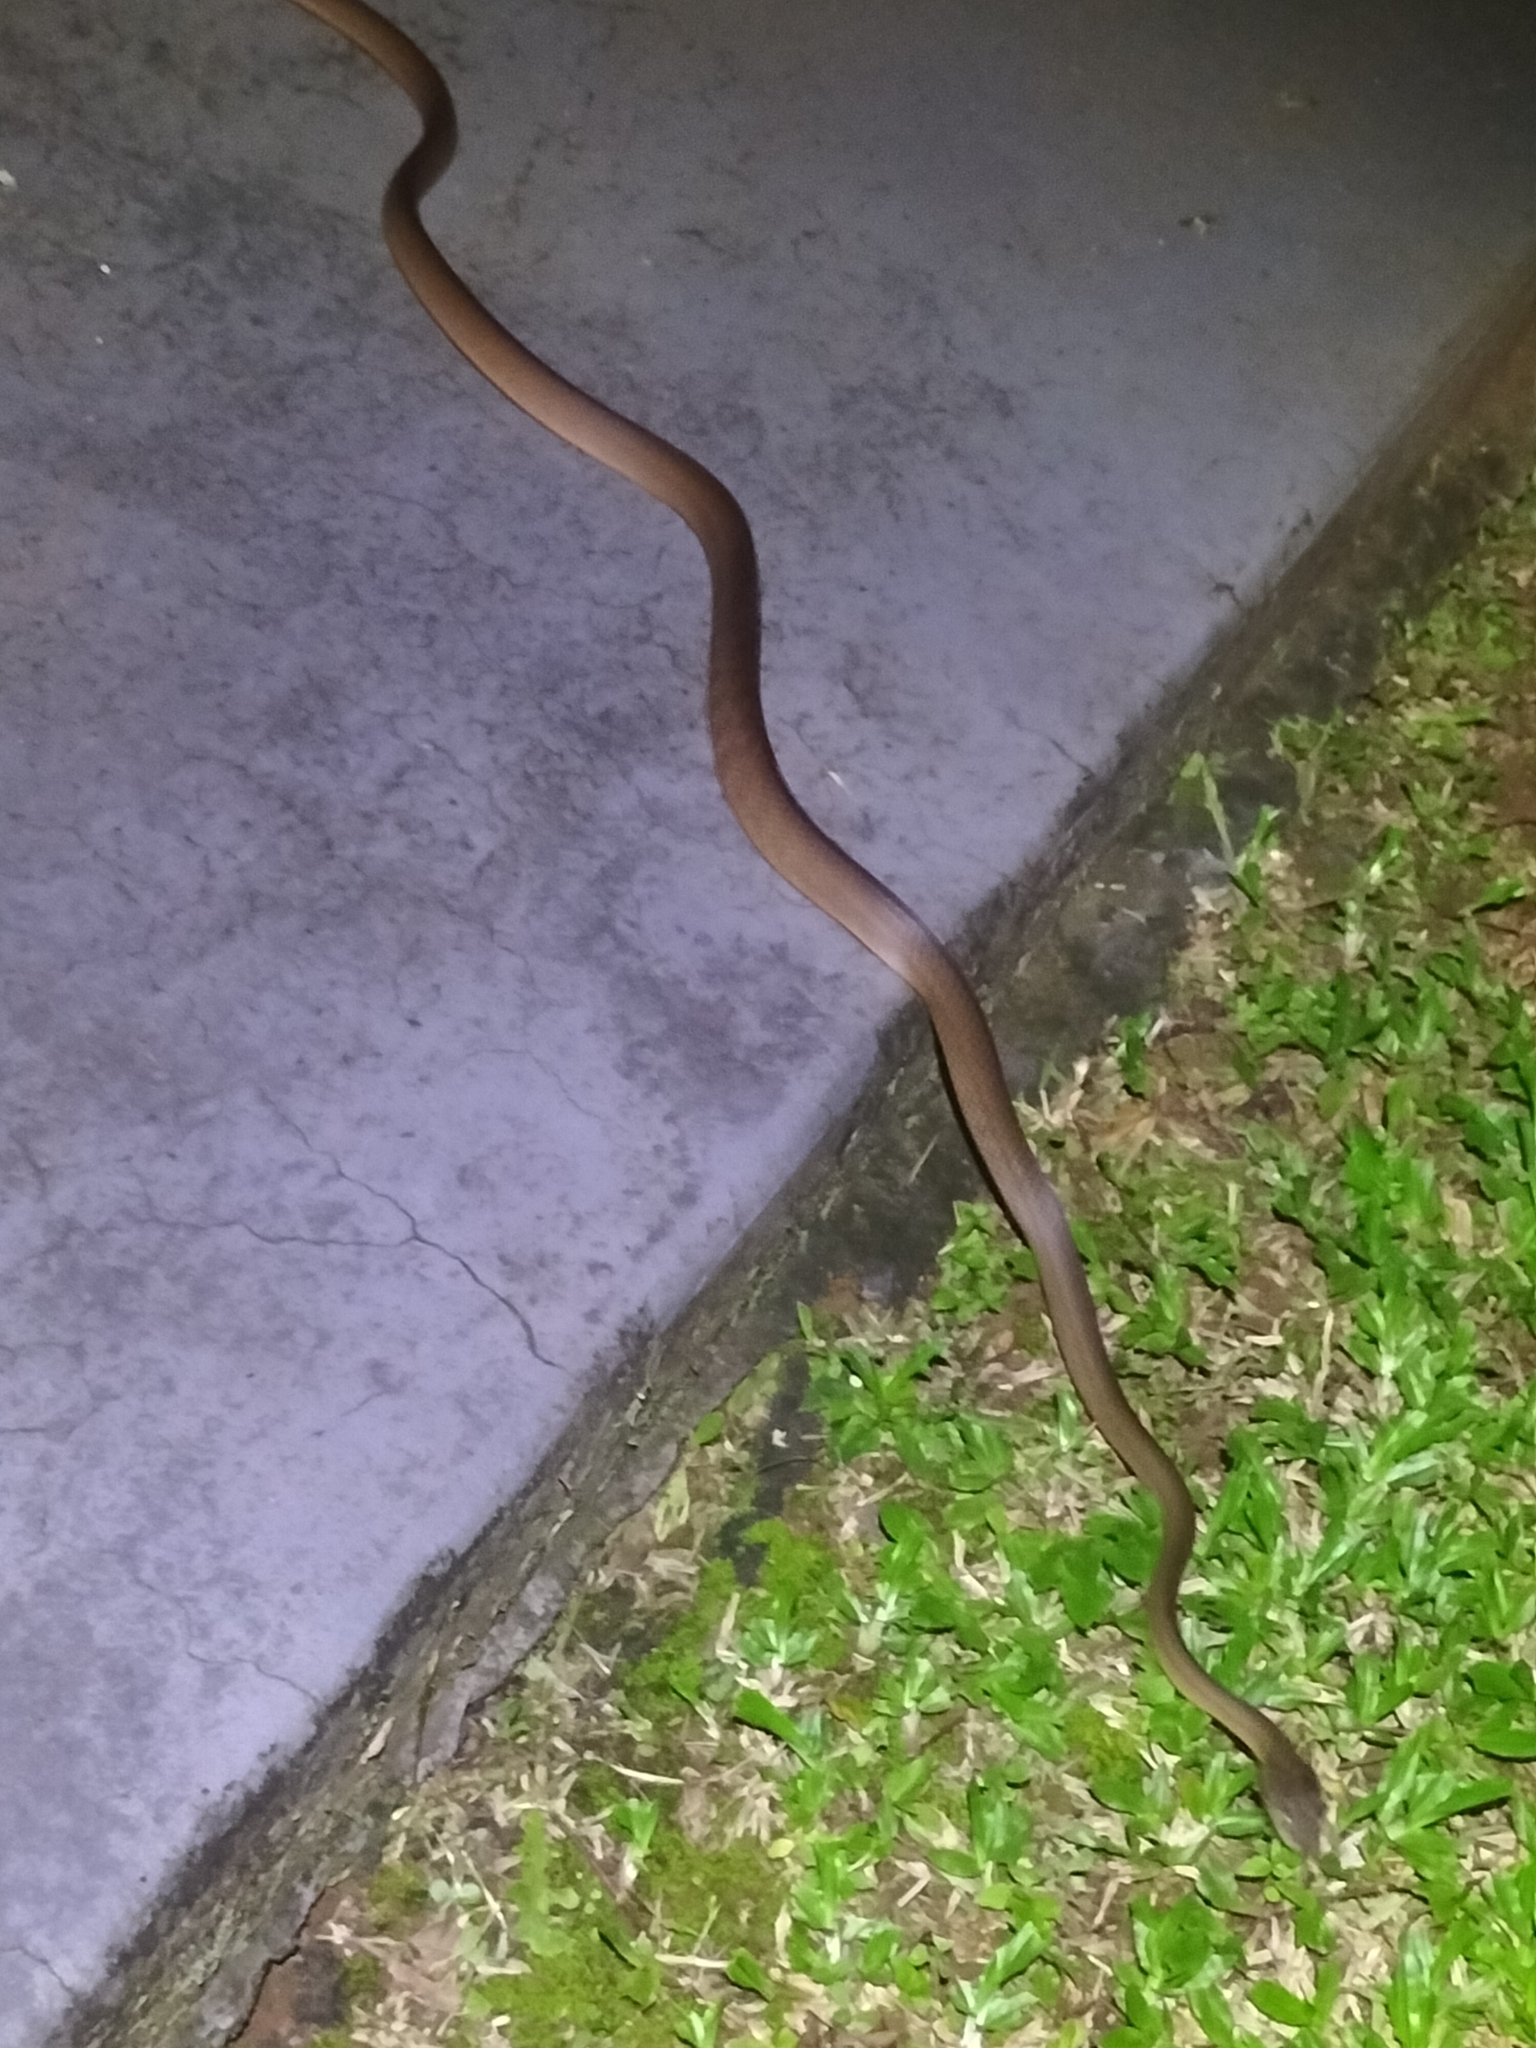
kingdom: Animalia
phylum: Chordata
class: Squamata
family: Colubridae
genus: Boiga
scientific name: Boiga irregularis
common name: Brown tree snake
